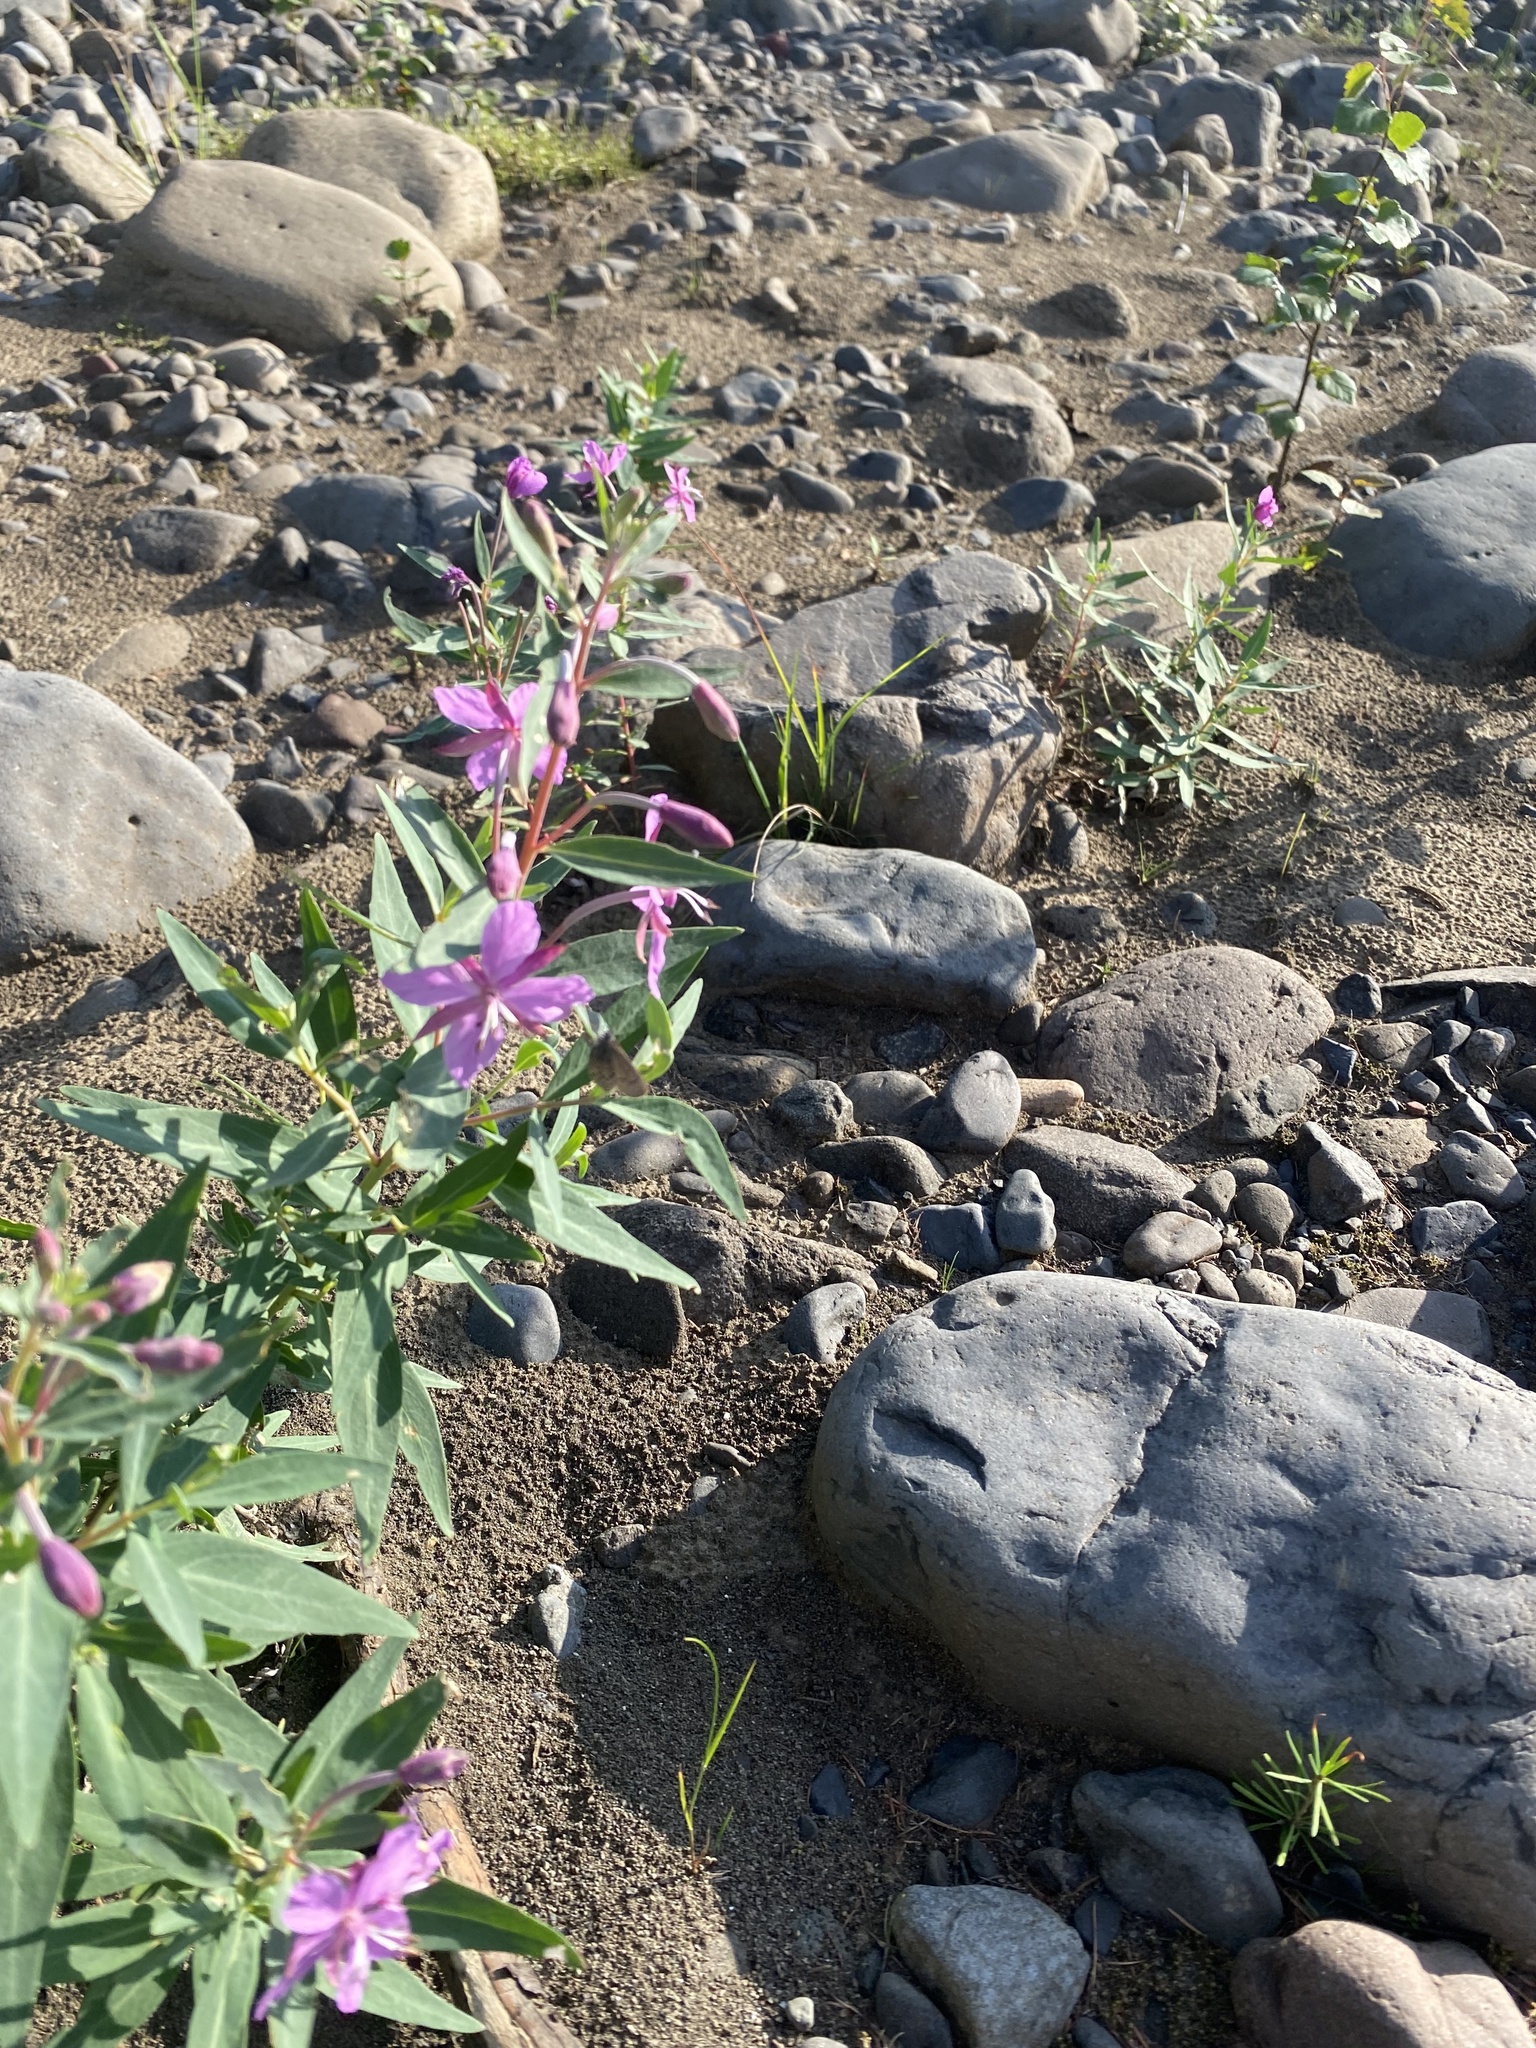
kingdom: Plantae
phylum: Tracheophyta
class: Magnoliopsida
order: Myrtales
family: Onagraceae
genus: Chamaenerion
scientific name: Chamaenerion latifolium
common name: Dwarf fireweed
